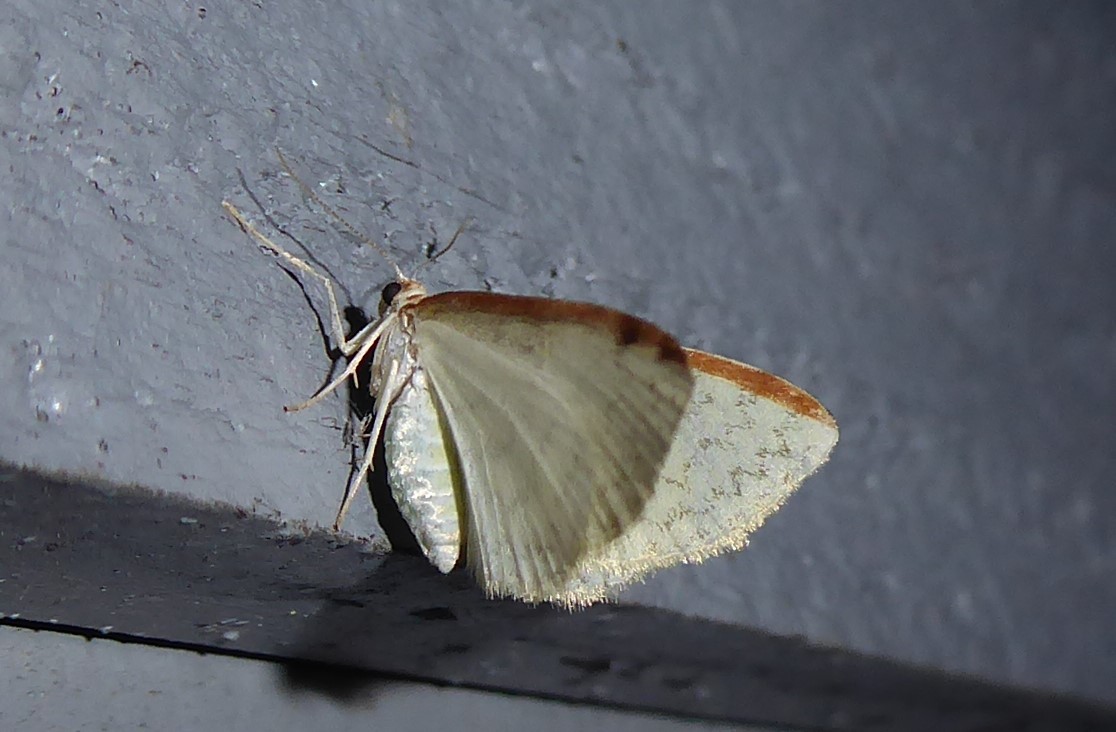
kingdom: Animalia
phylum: Arthropoda
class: Insecta
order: Lepidoptera
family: Geometridae
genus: Epiphryne
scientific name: Epiphryne undosata
